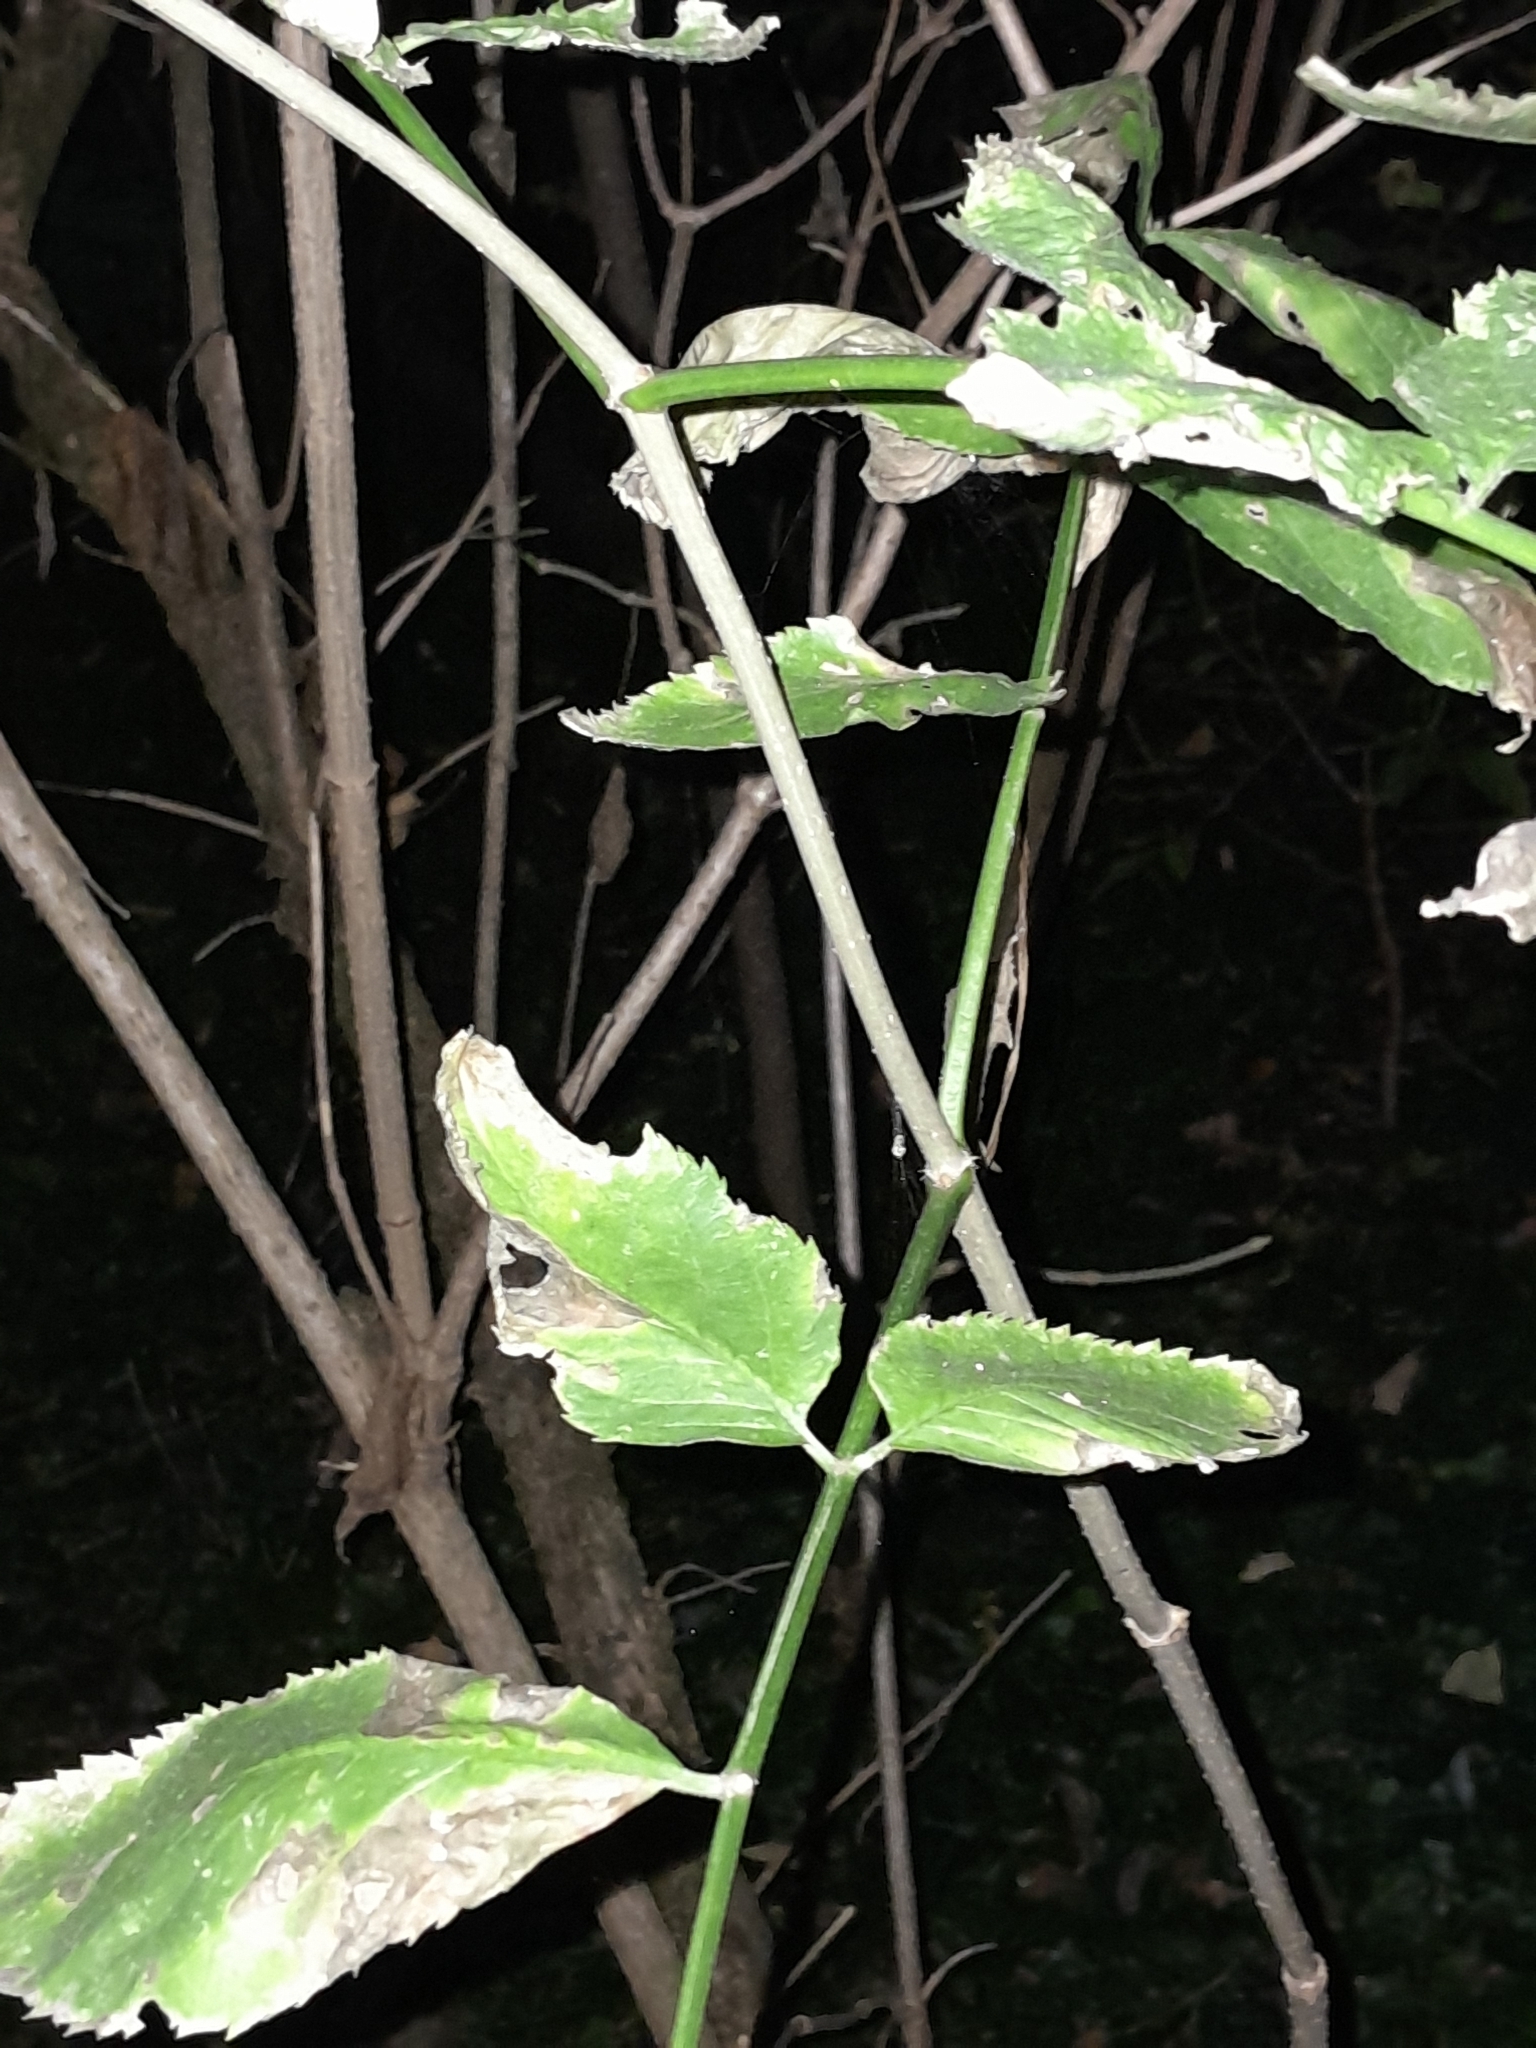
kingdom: Plantae
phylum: Tracheophyta
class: Magnoliopsida
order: Dipsacales
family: Viburnaceae
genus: Sambucus
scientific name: Sambucus nigra
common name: Elder
